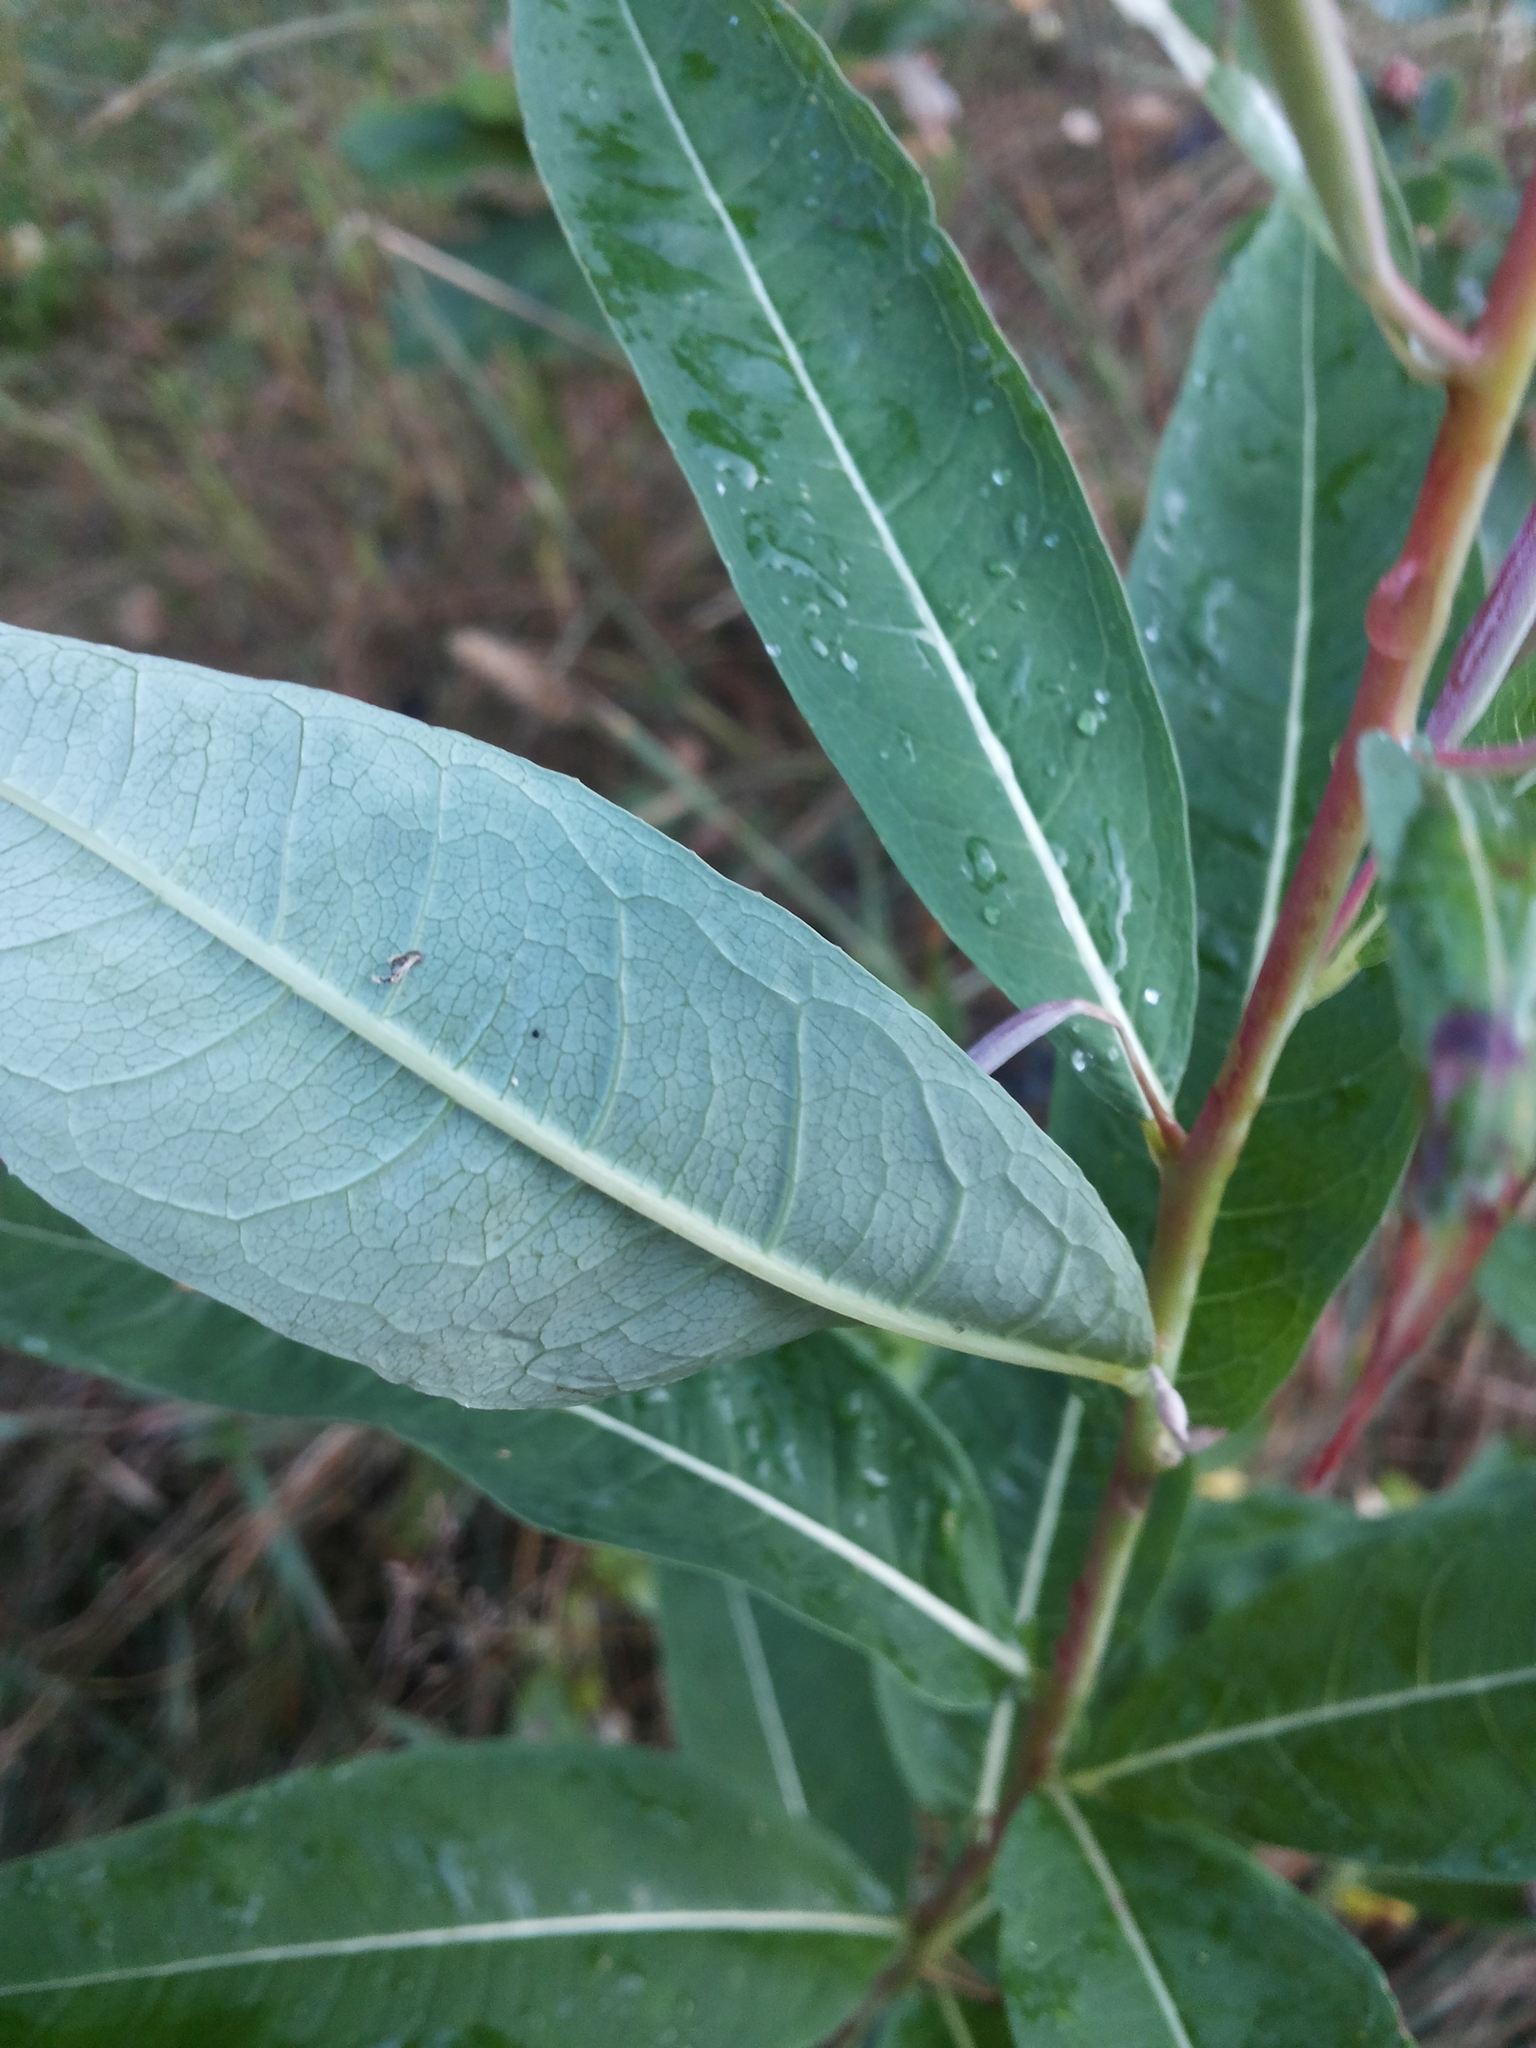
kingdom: Plantae
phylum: Tracheophyta
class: Magnoliopsida
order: Myrtales
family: Onagraceae
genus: Chamaenerion
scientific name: Chamaenerion angustifolium
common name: Fireweed
